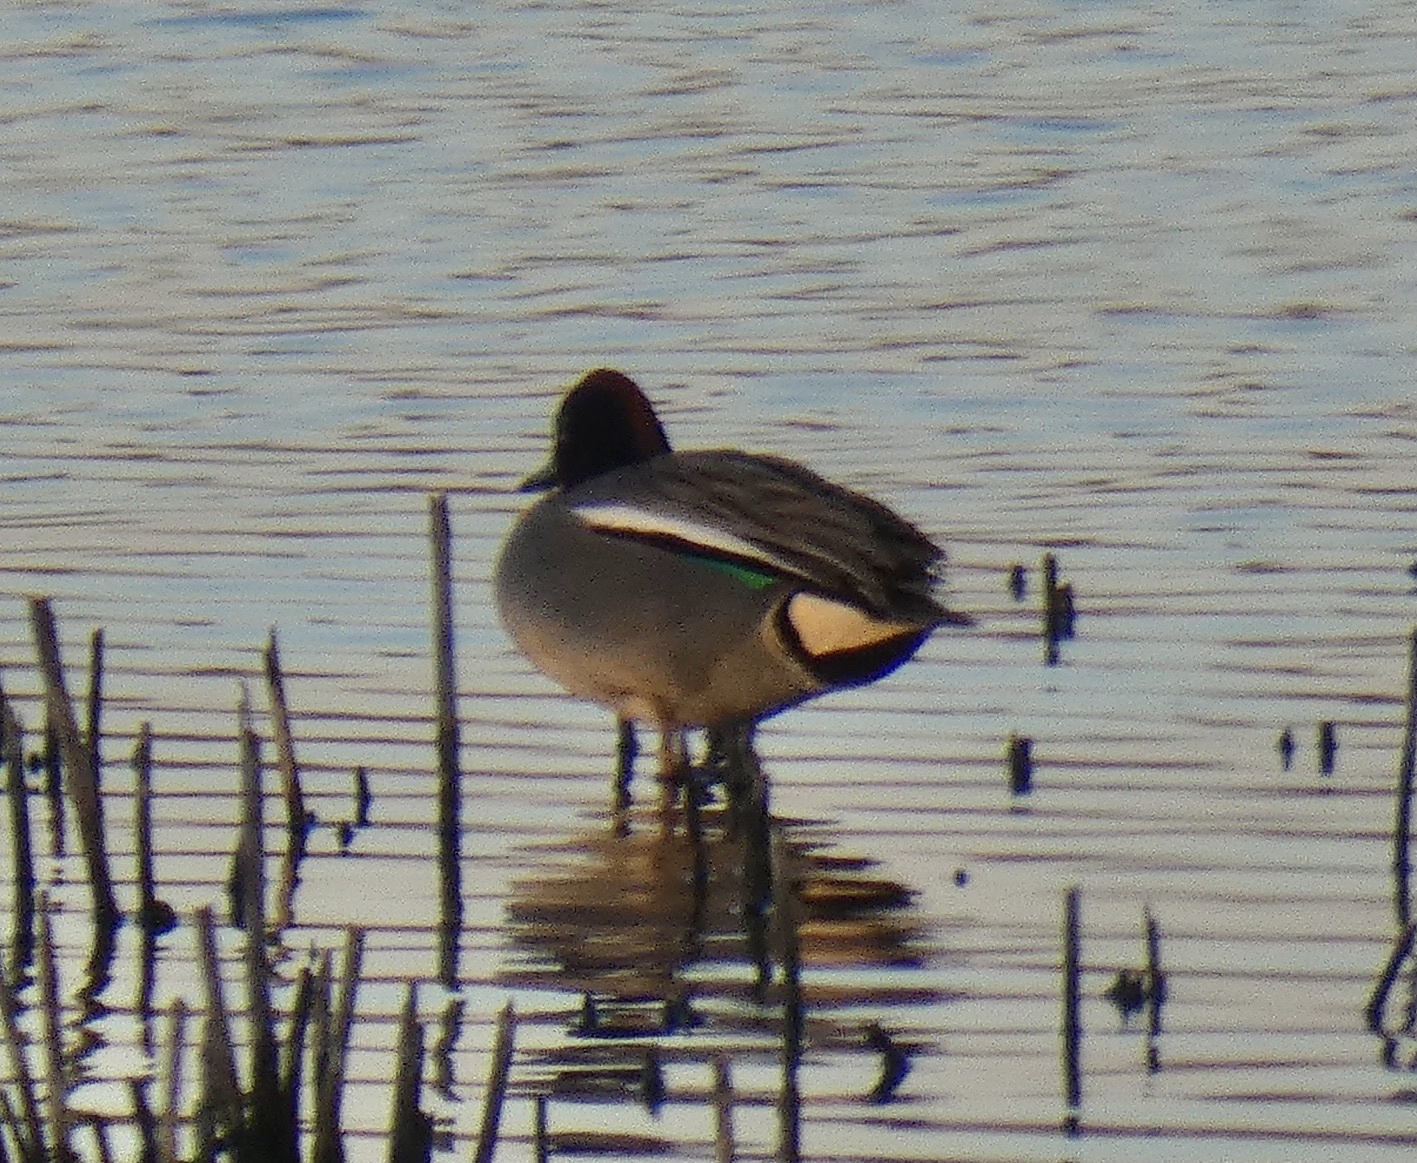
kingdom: Animalia
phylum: Chordata
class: Aves
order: Anseriformes
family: Anatidae
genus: Anas
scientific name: Anas crecca
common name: Eurasian teal
